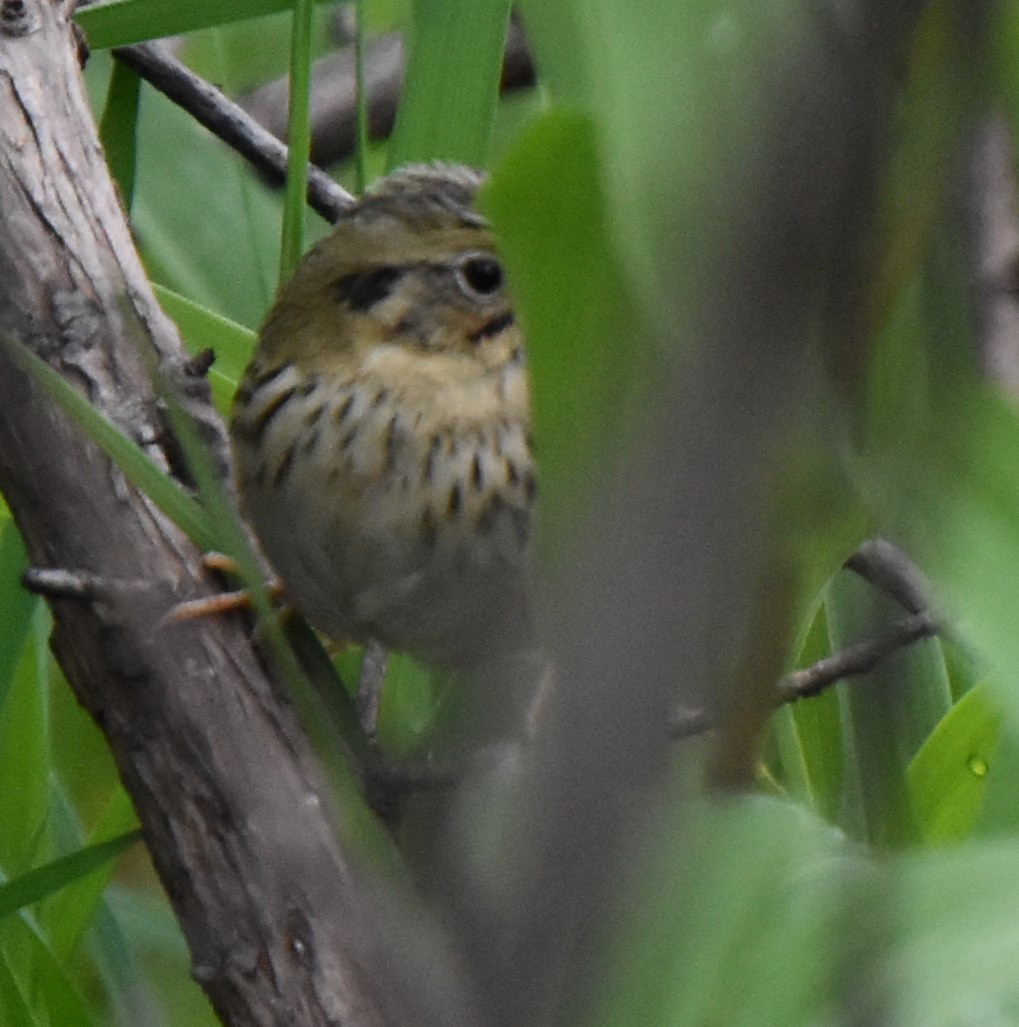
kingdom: Animalia
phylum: Chordata
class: Aves
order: Passeriformes
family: Passerellidae
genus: Centronyx
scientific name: Centronyx henslowii
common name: Henslow's sparrow
